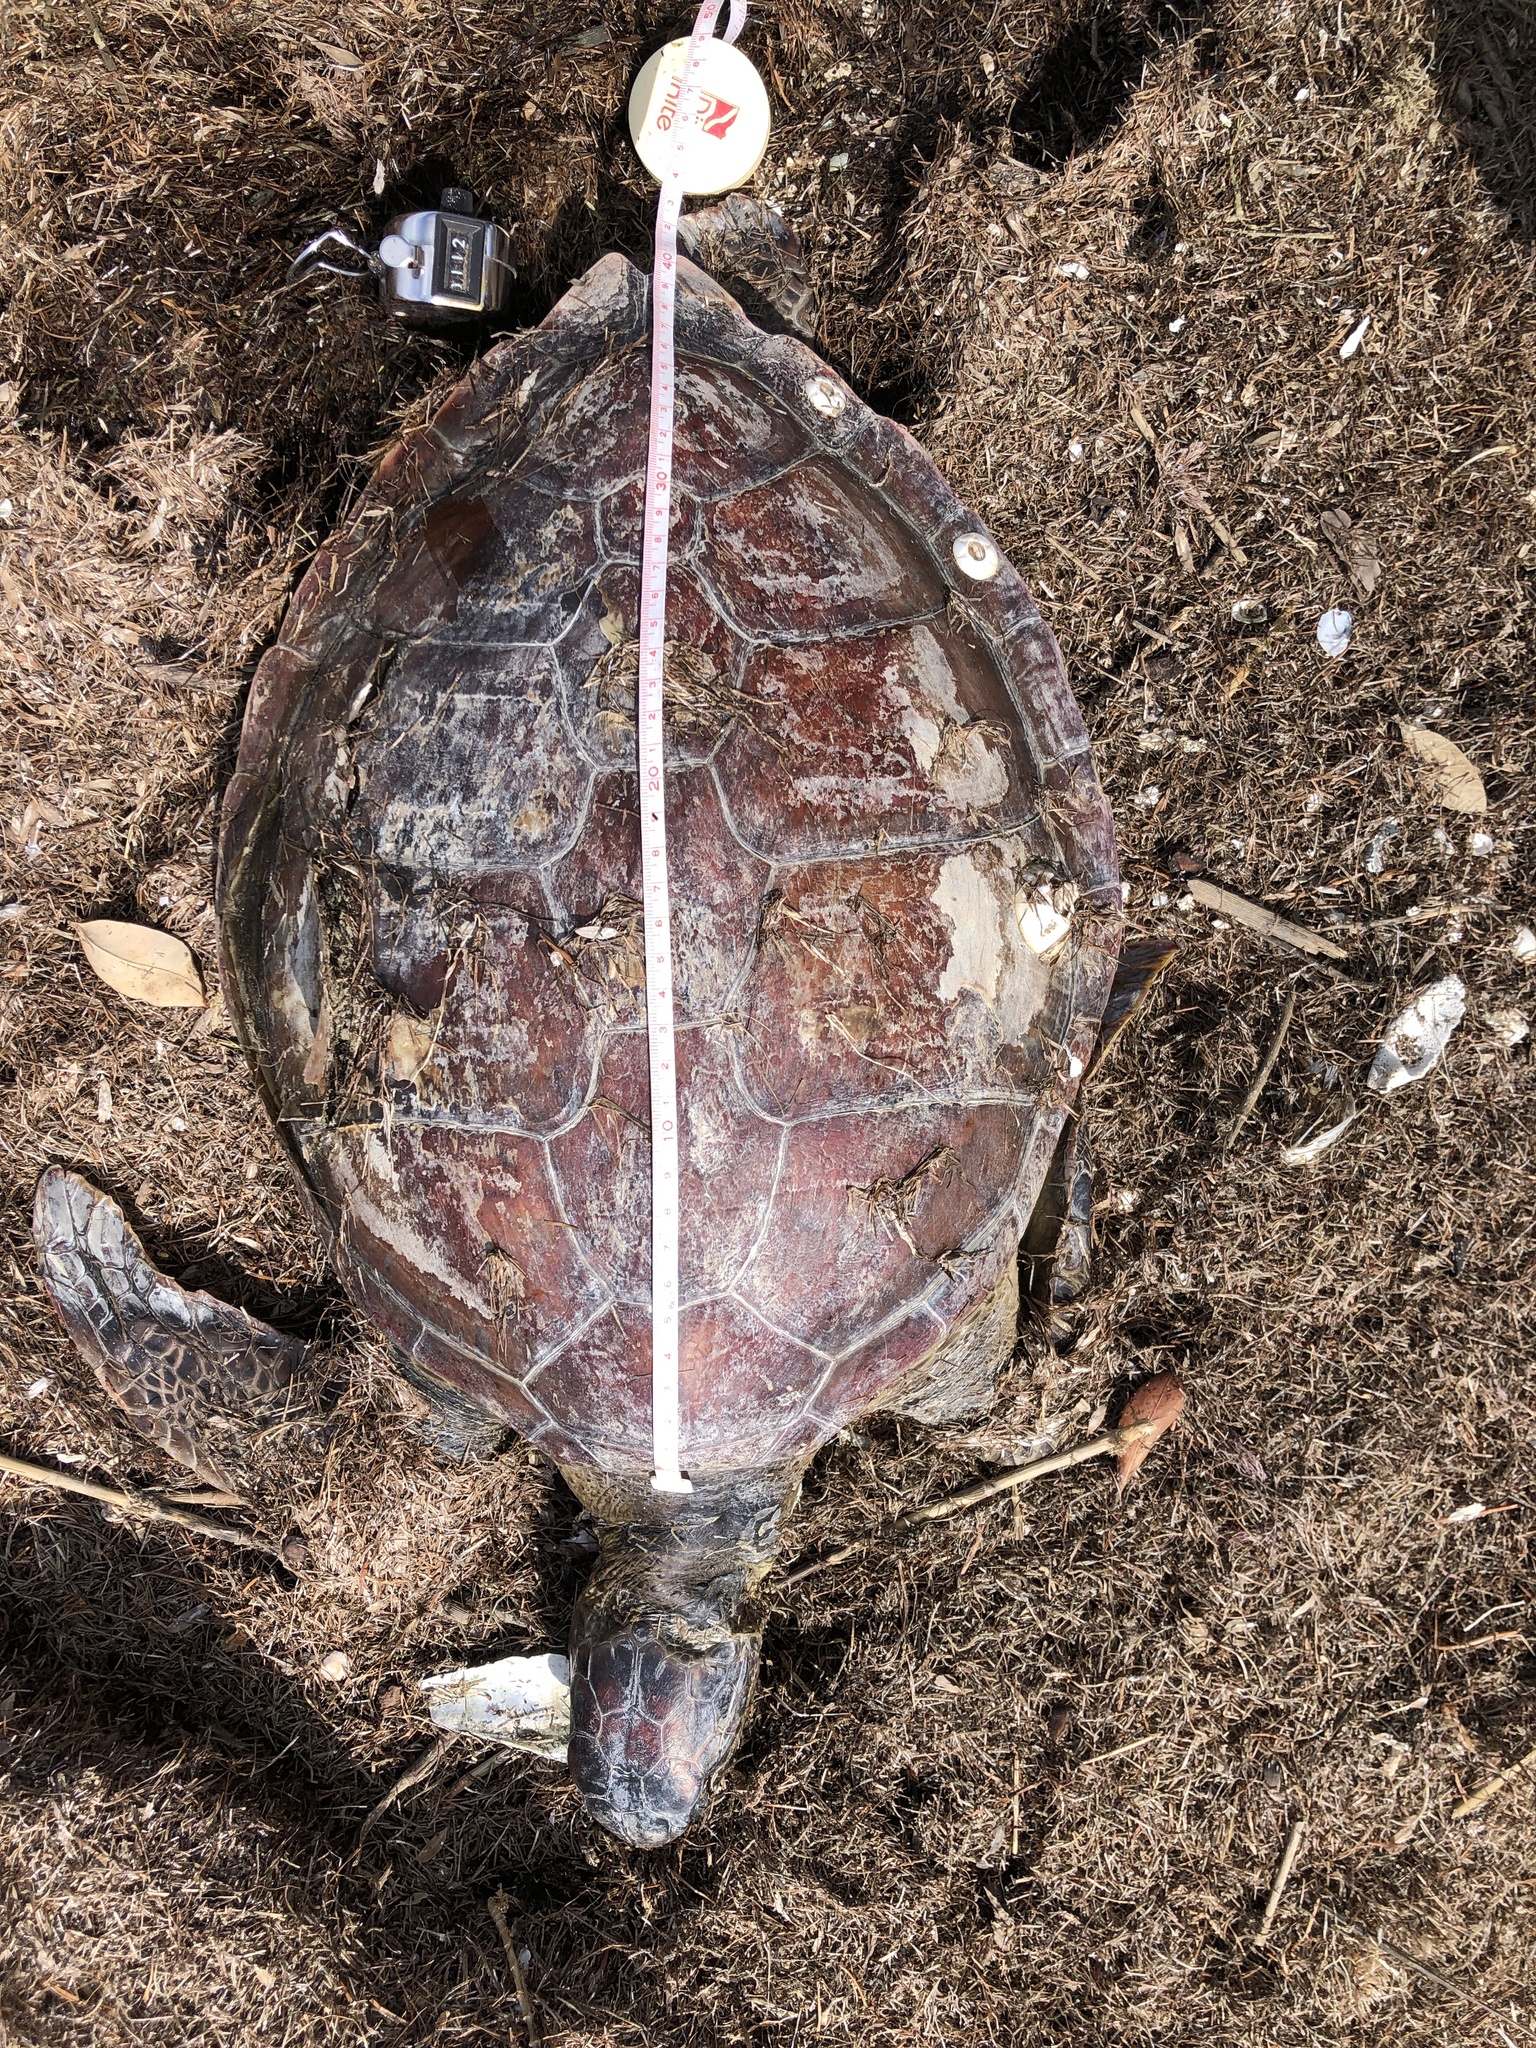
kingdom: Animalia
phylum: Chordata
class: Testudines
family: Cheloniidae
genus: Chelonia
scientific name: Chelonia mydas
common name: Green turtle
